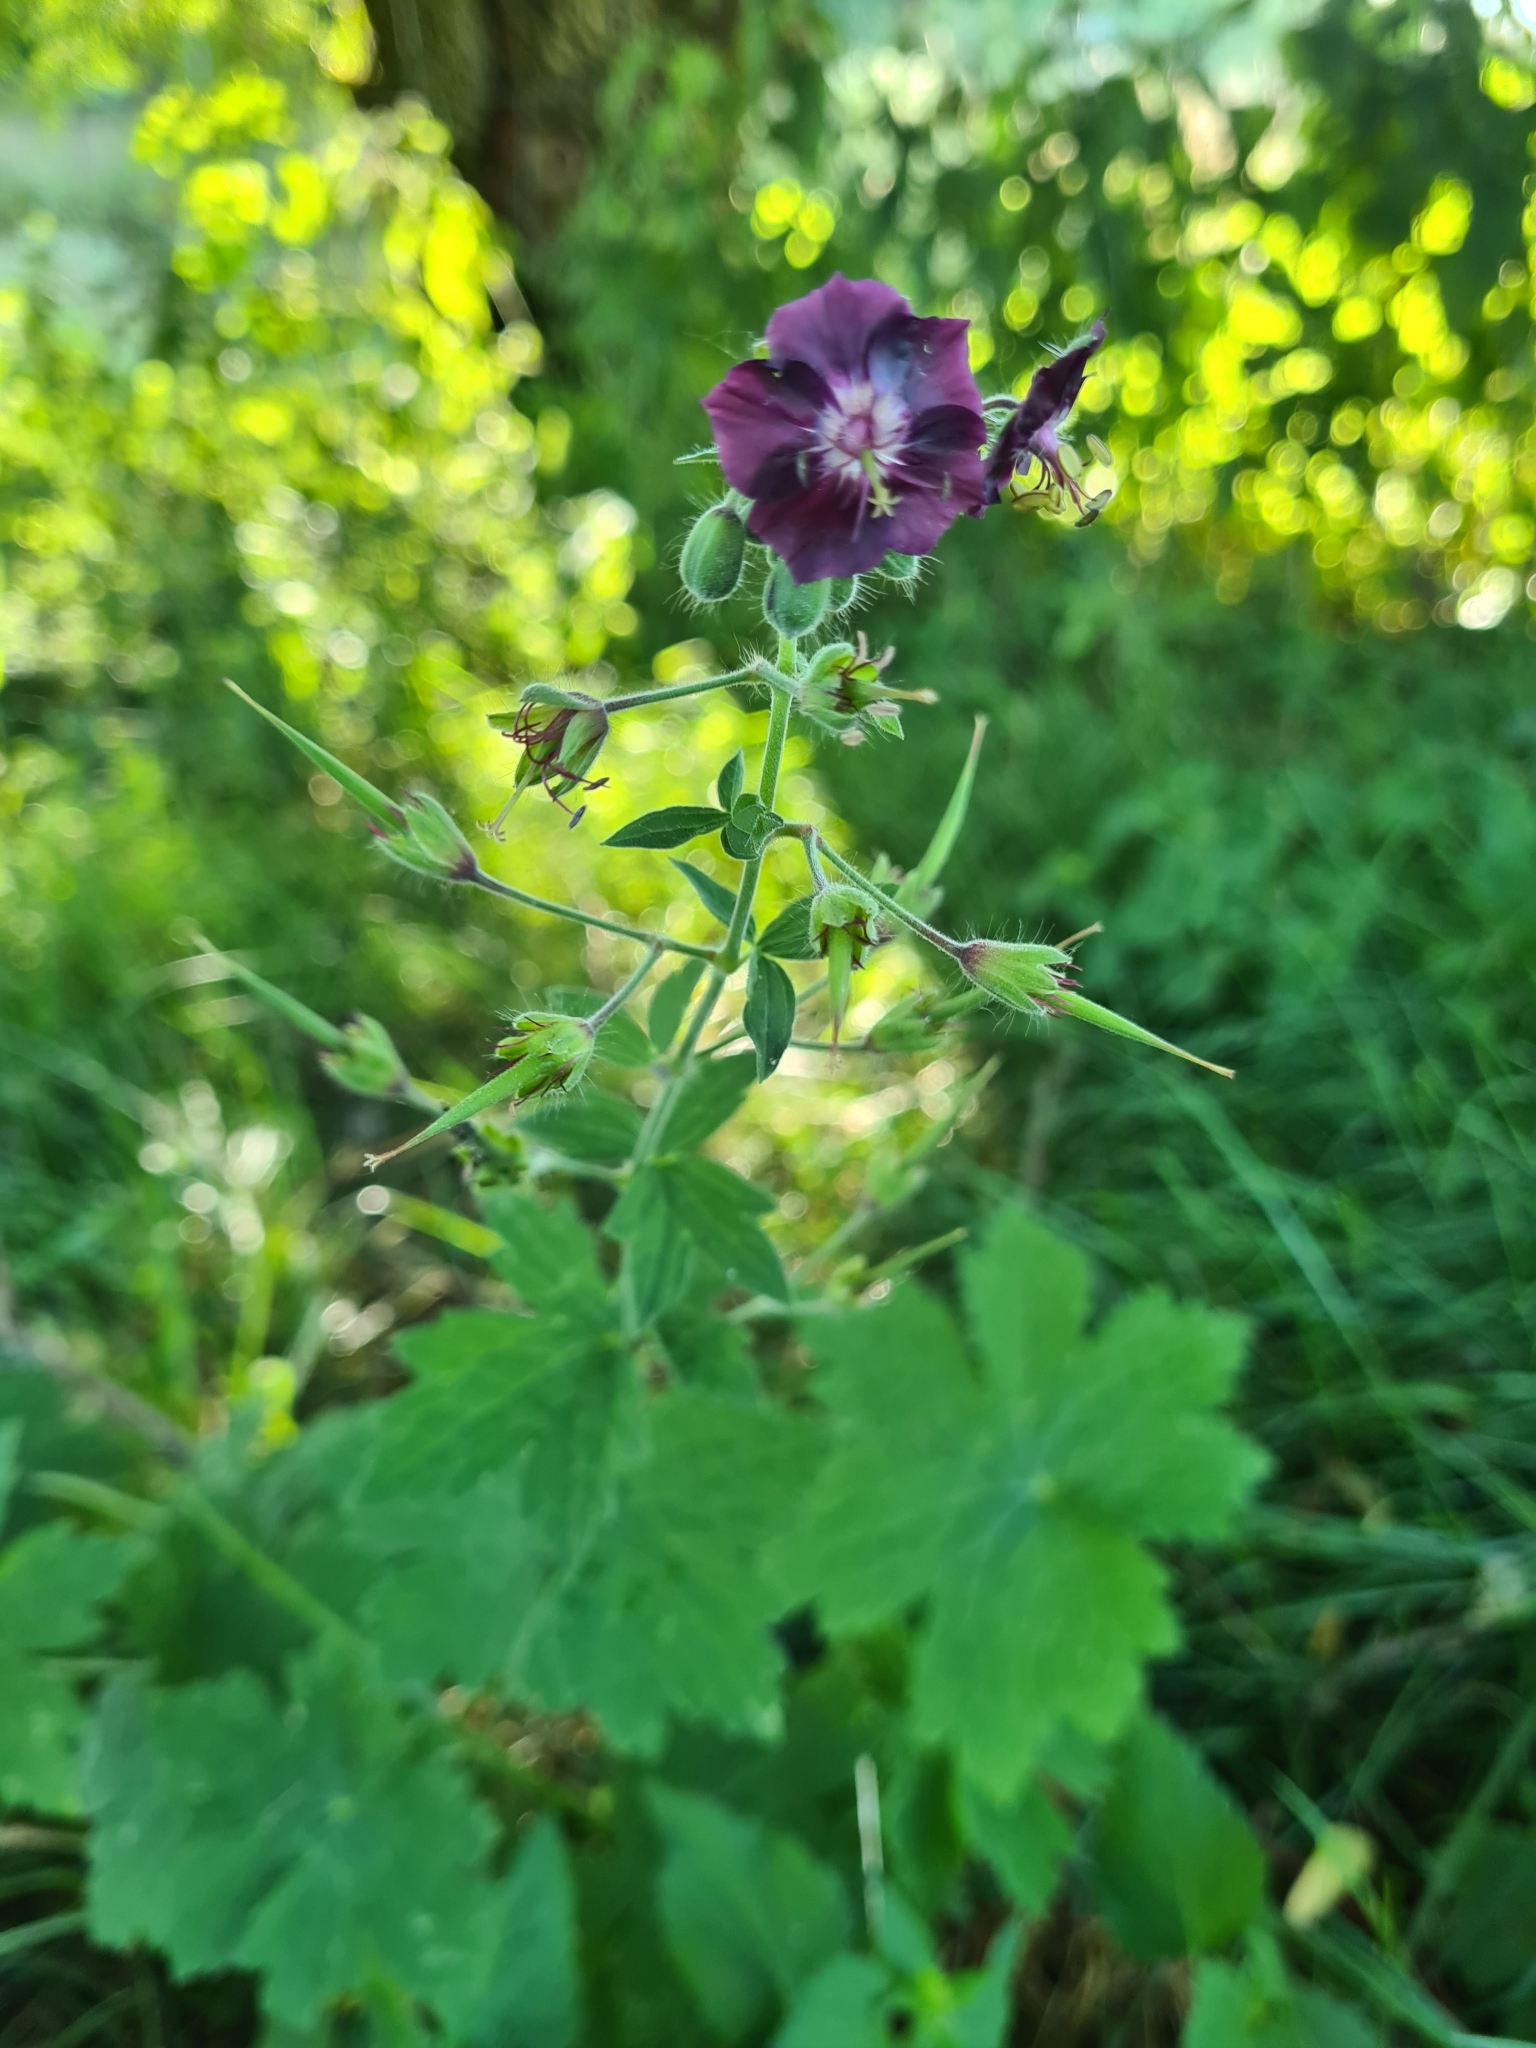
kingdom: Plantae
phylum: Tracheophyta
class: Magnoliopsida
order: Geraniales
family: Geraniaceae
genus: Geranium
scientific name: Geranium phaeum
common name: Dusky crane's-bill
